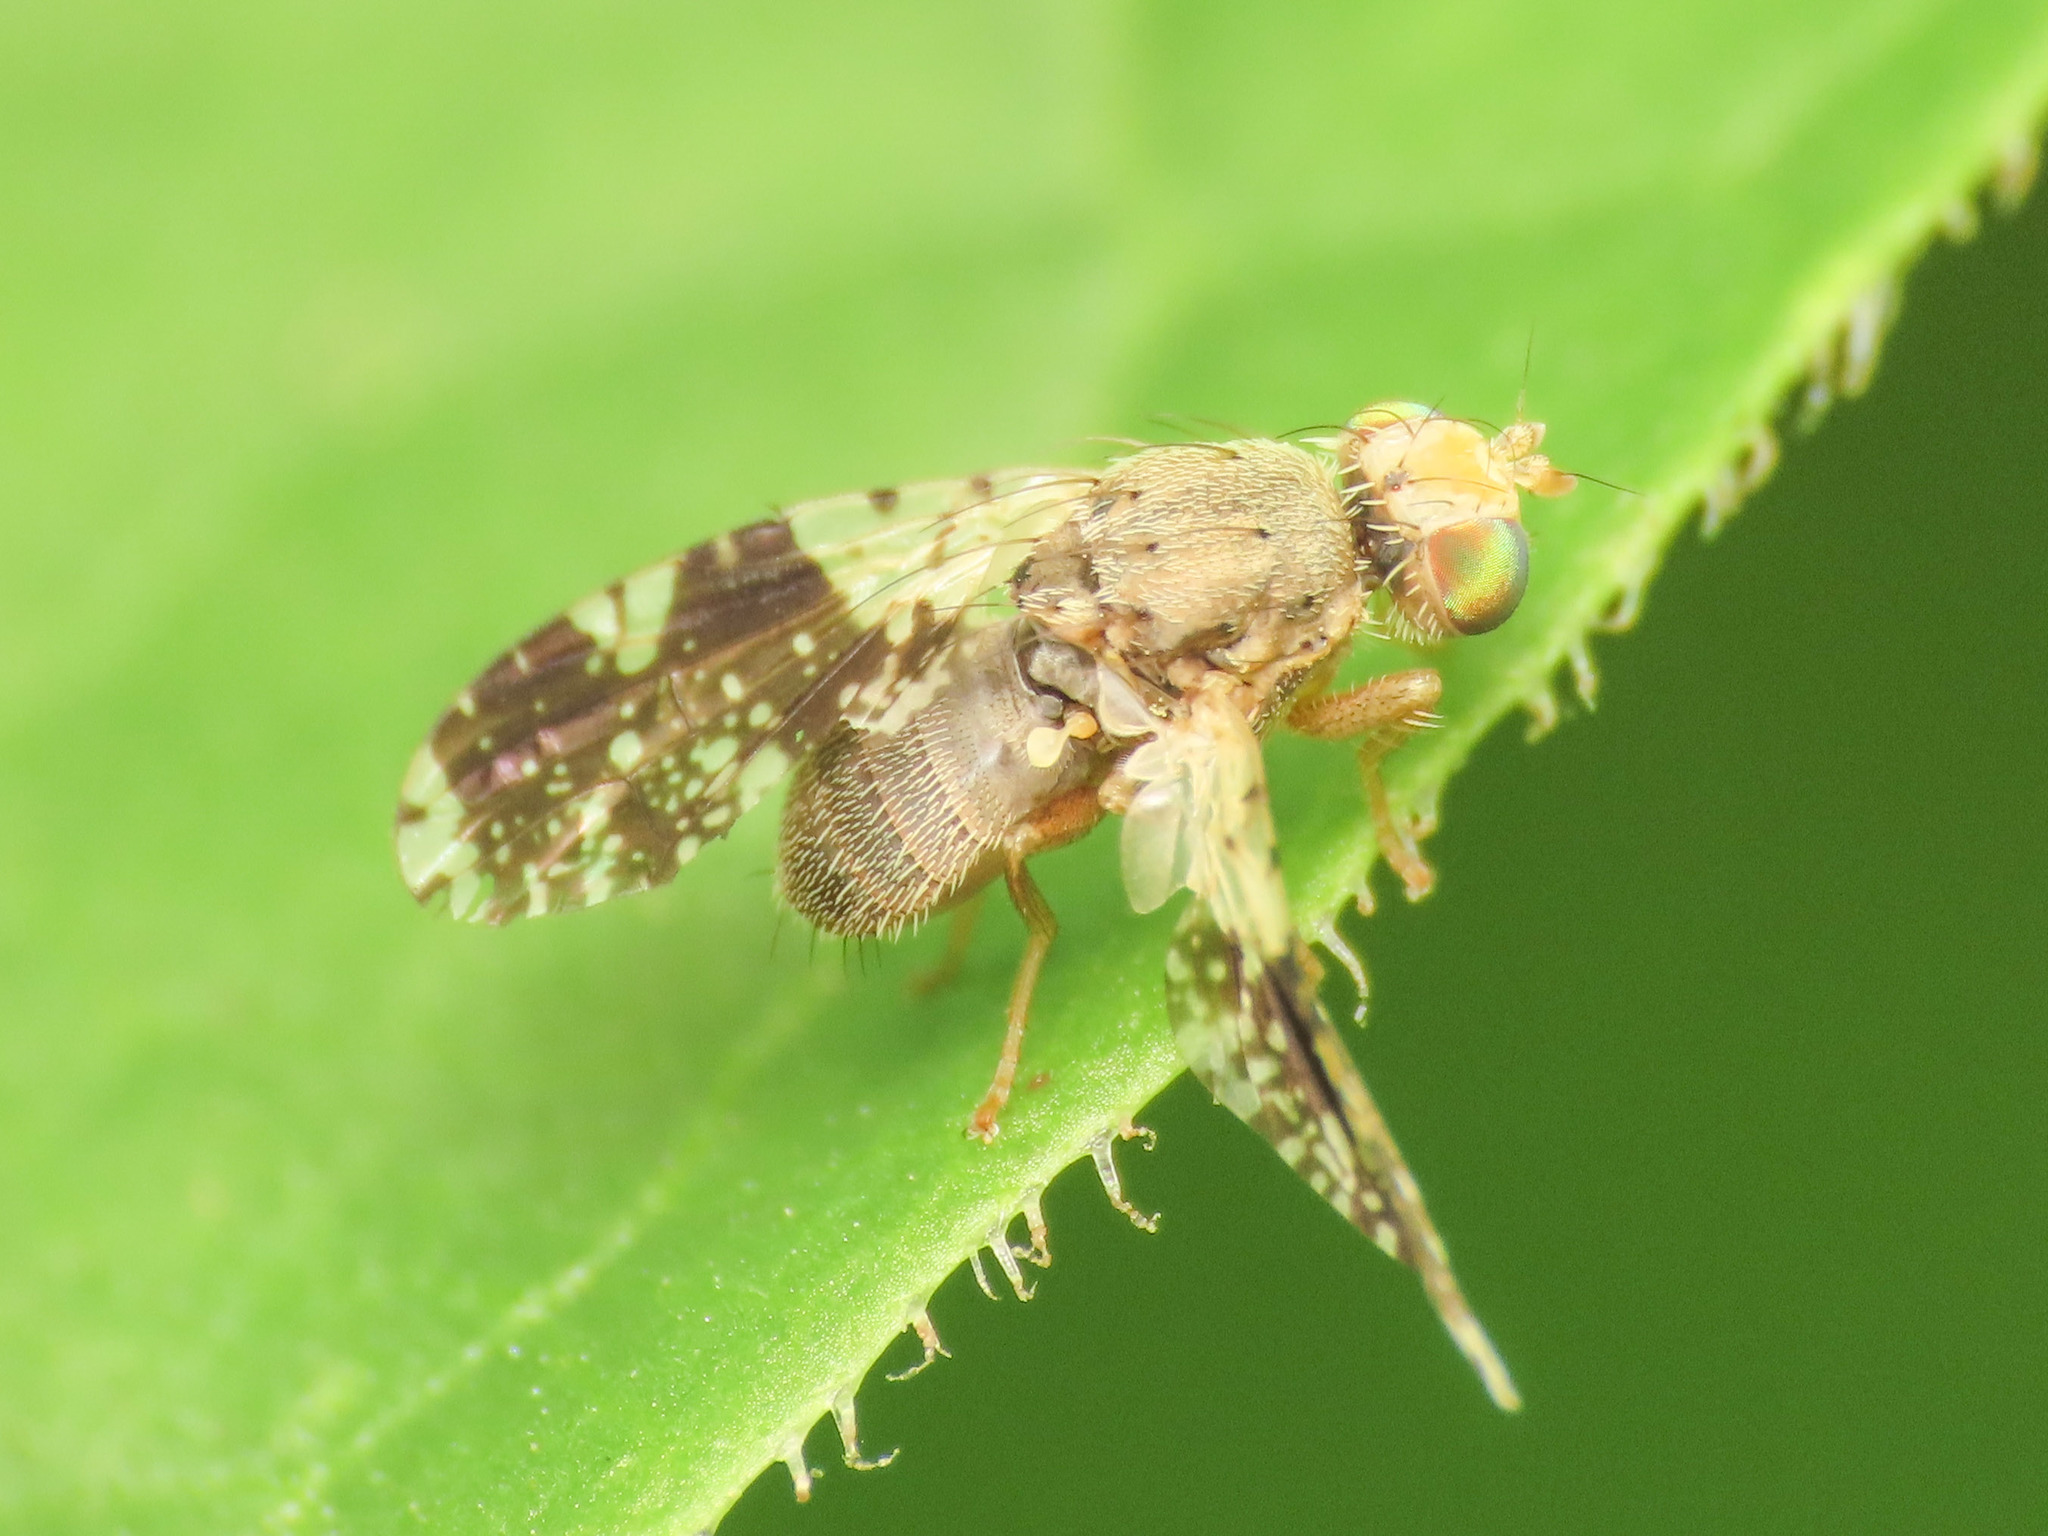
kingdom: Animalia
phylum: Arthropoda
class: Insecta
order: Diptera
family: Tephritidae
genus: Tephritis
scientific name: Tephritis formosa
